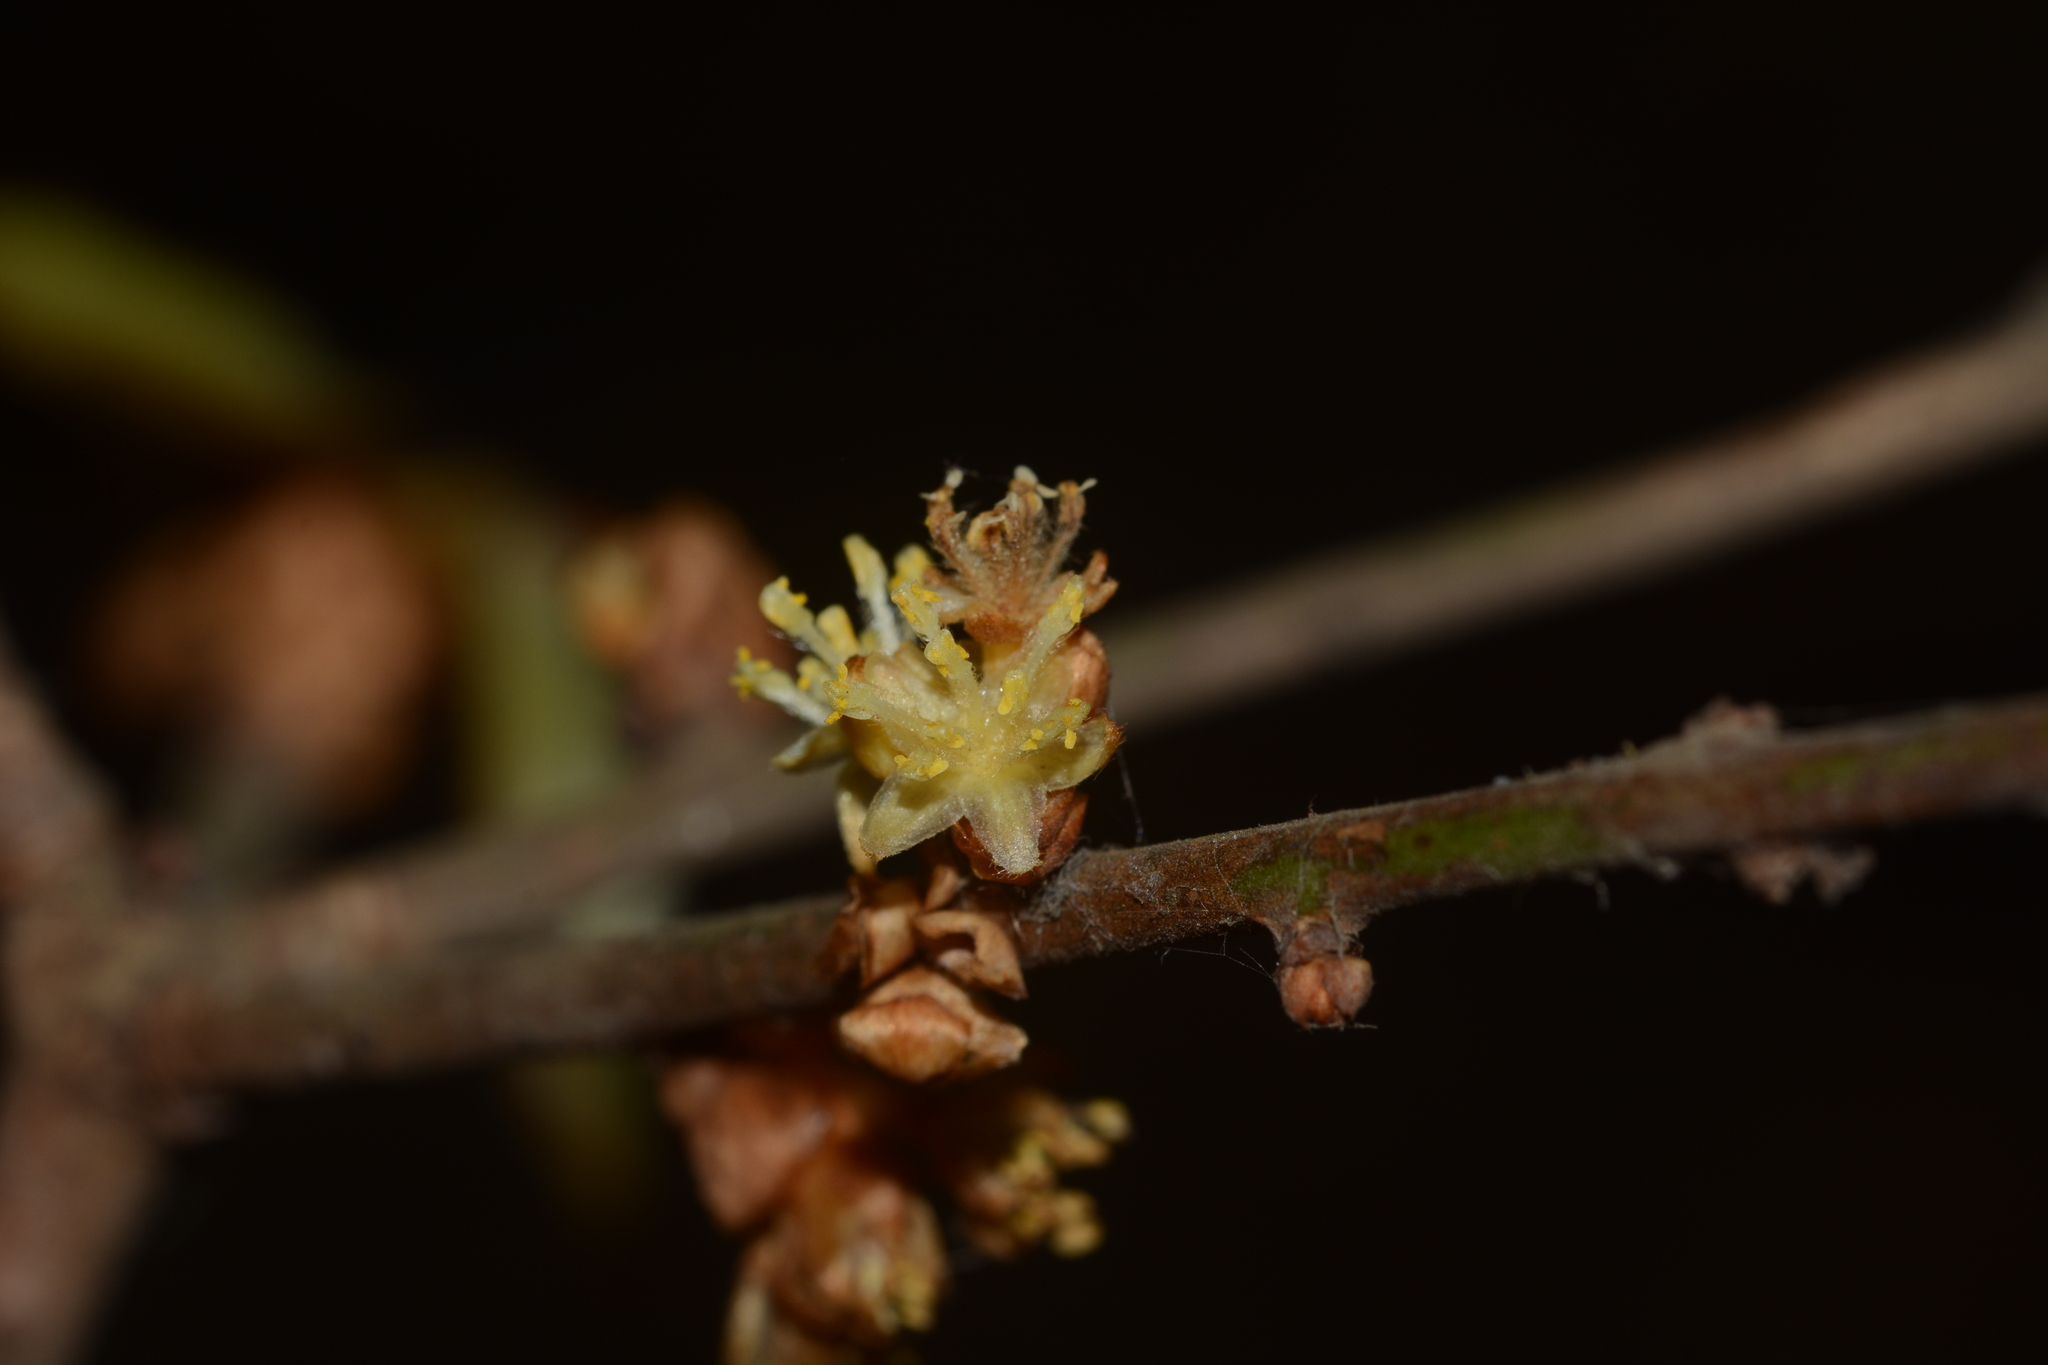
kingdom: Plantae
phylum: Tracheophyta
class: Magnoliopsida
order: Laurales
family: Lauraceae
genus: Actinodaphne
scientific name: Actinodaphne
